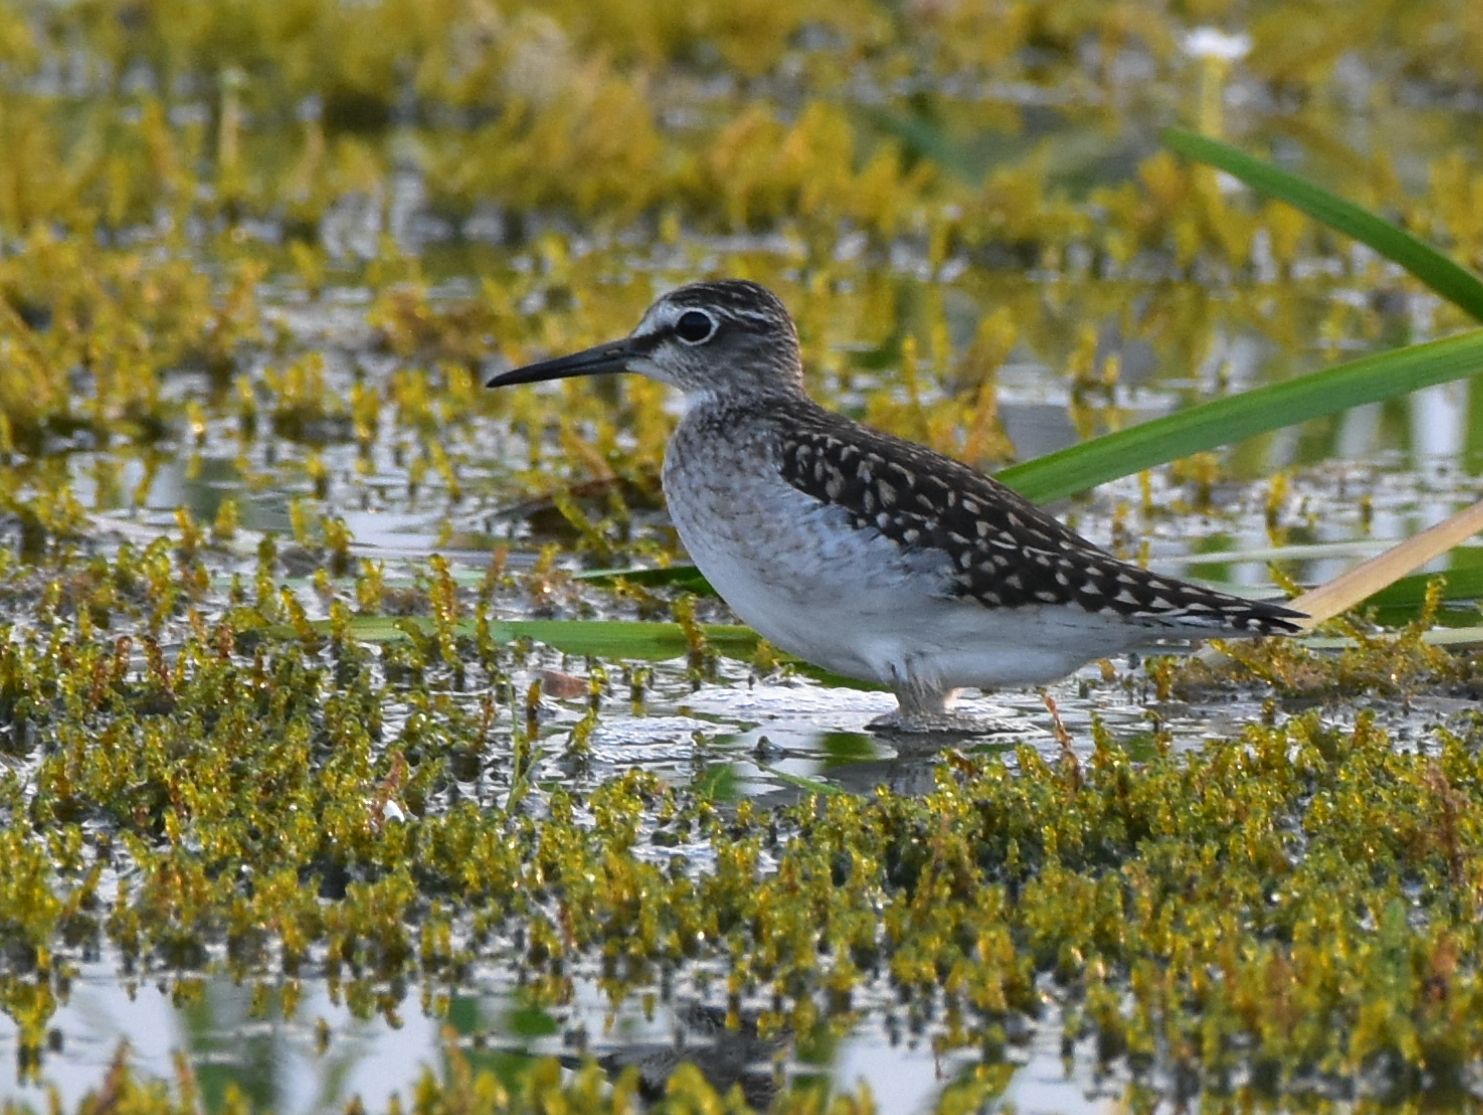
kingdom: Animalia
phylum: Chordata
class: Aves
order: Charadriiformes
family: Scolopacidae
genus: Tringa
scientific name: Tringa glareola
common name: Wood sandpiper
